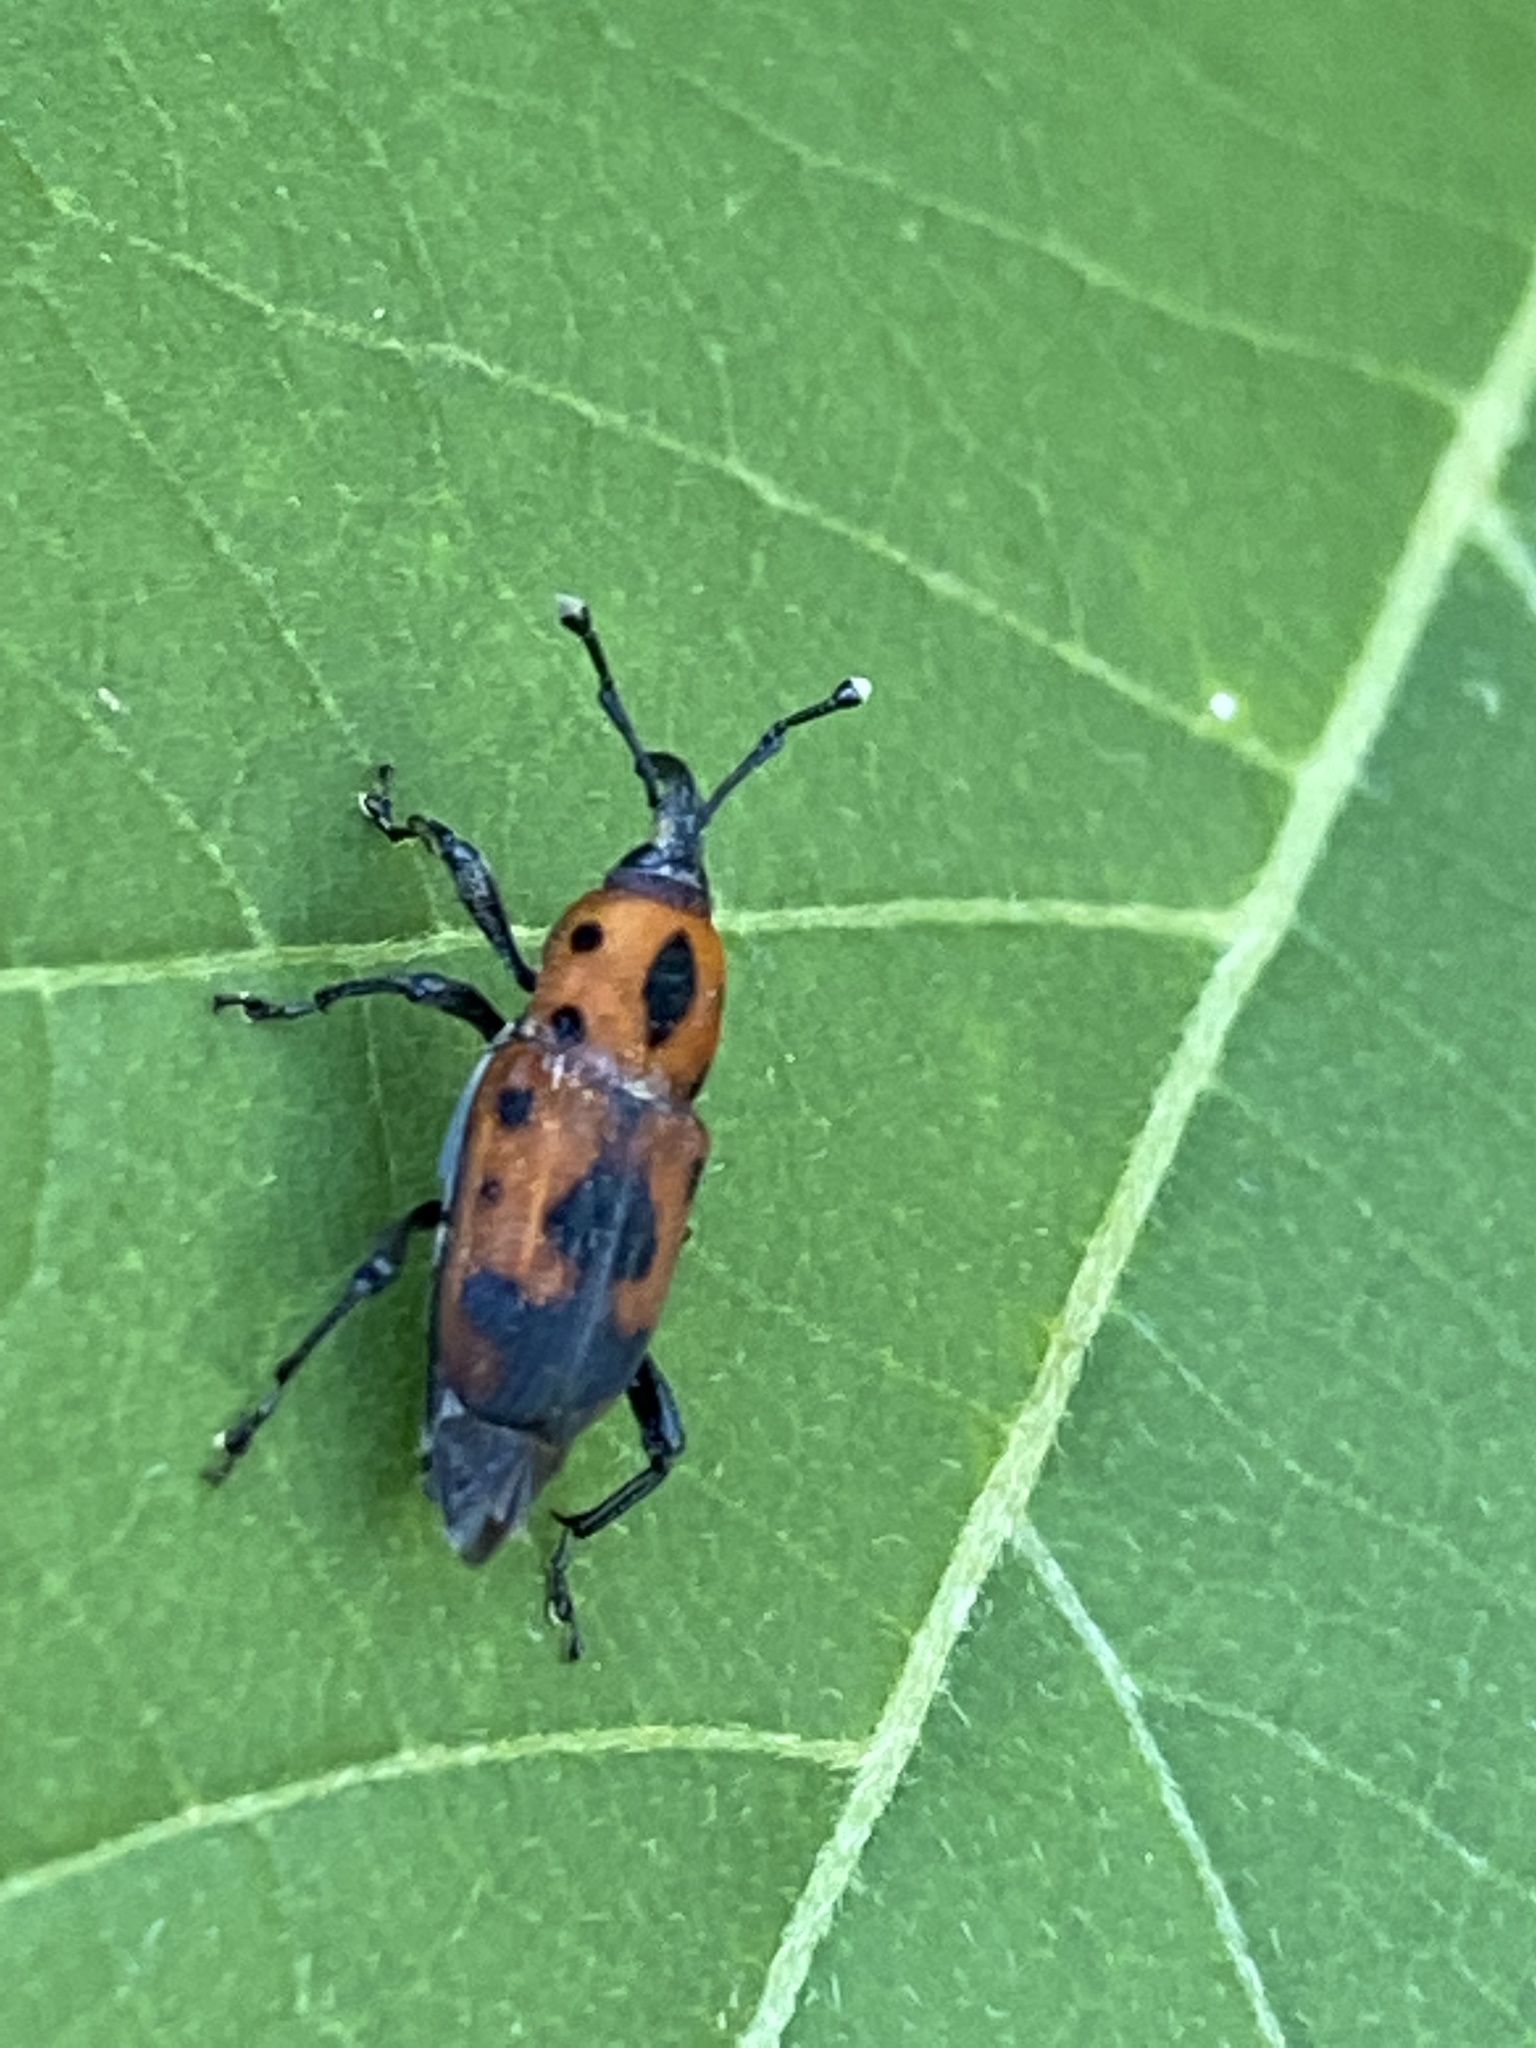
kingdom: Animalia
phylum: Arthropoda
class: Insecta
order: Coleoptera
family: Dryophthoridae
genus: Rhodobaenus
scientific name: Rhodobaenus quinquepunctatus
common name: Cocklebur weevil
